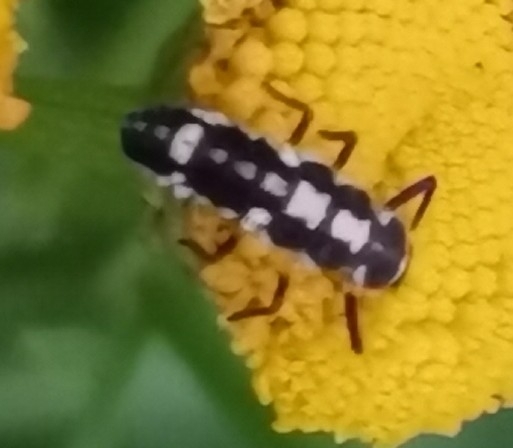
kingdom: Animalia
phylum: Arthropoda
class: Insecta
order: Coleoptera
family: Coccinellidae
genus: Propylaea
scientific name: Propylaea quatuordecimpunctata
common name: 14-spotted ladybird beetle
